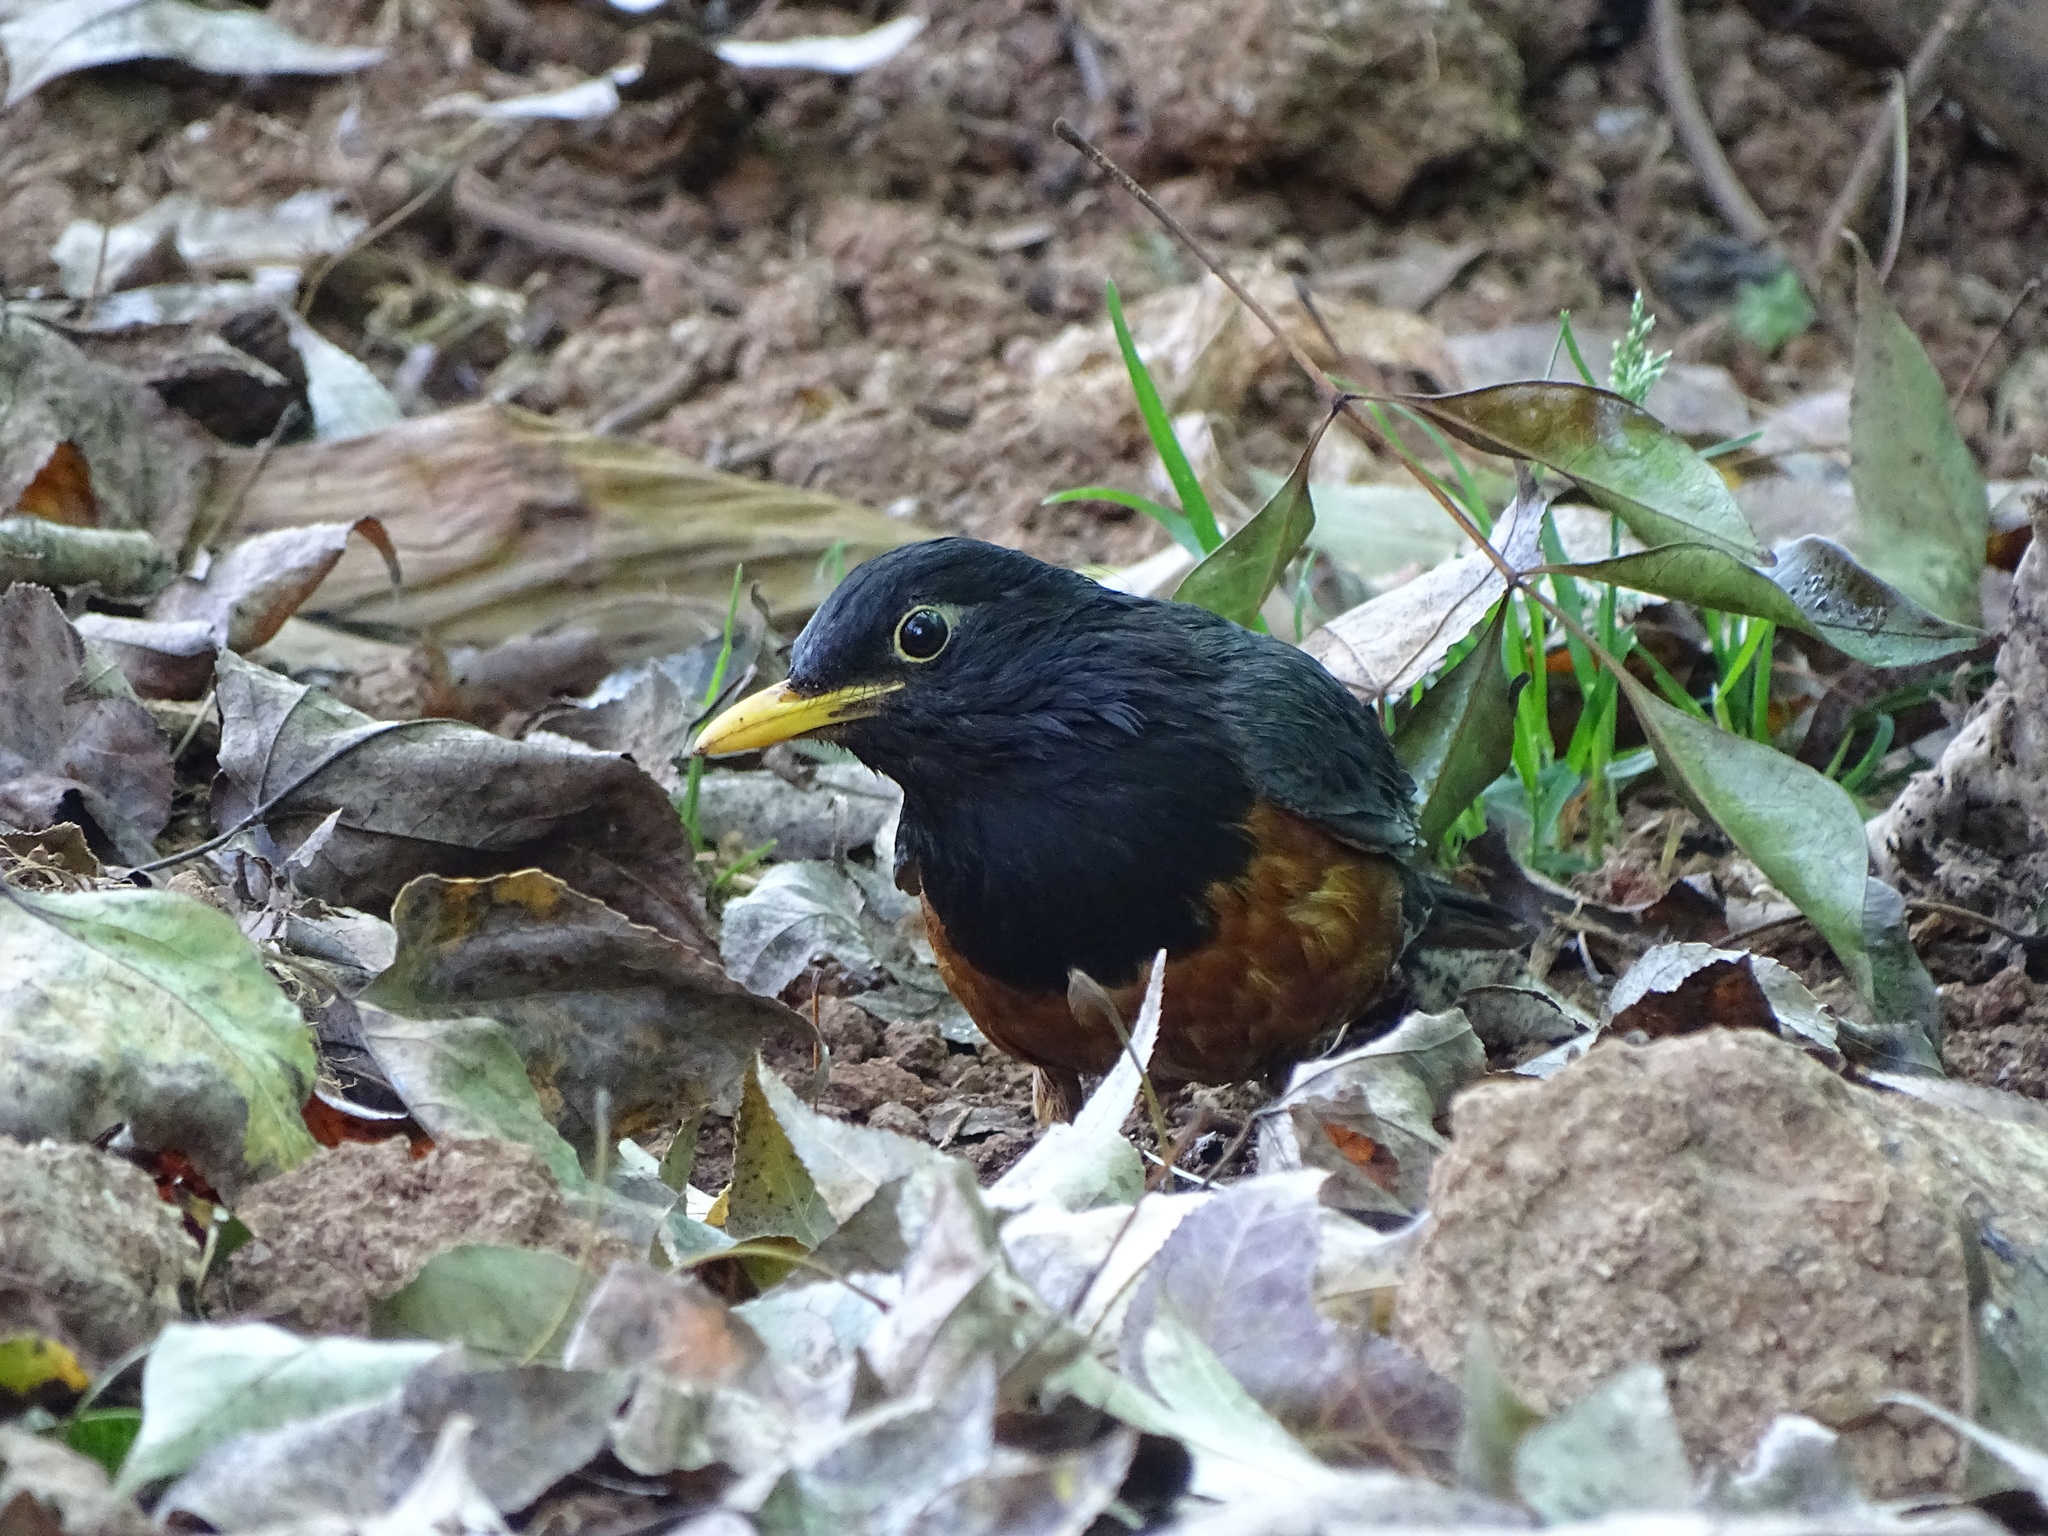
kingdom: Animalia
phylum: Chordata
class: Aves
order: Passeriformes
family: Turdidae
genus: Turdus
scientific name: Turdus dissimilis
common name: Black-breasted thrush
